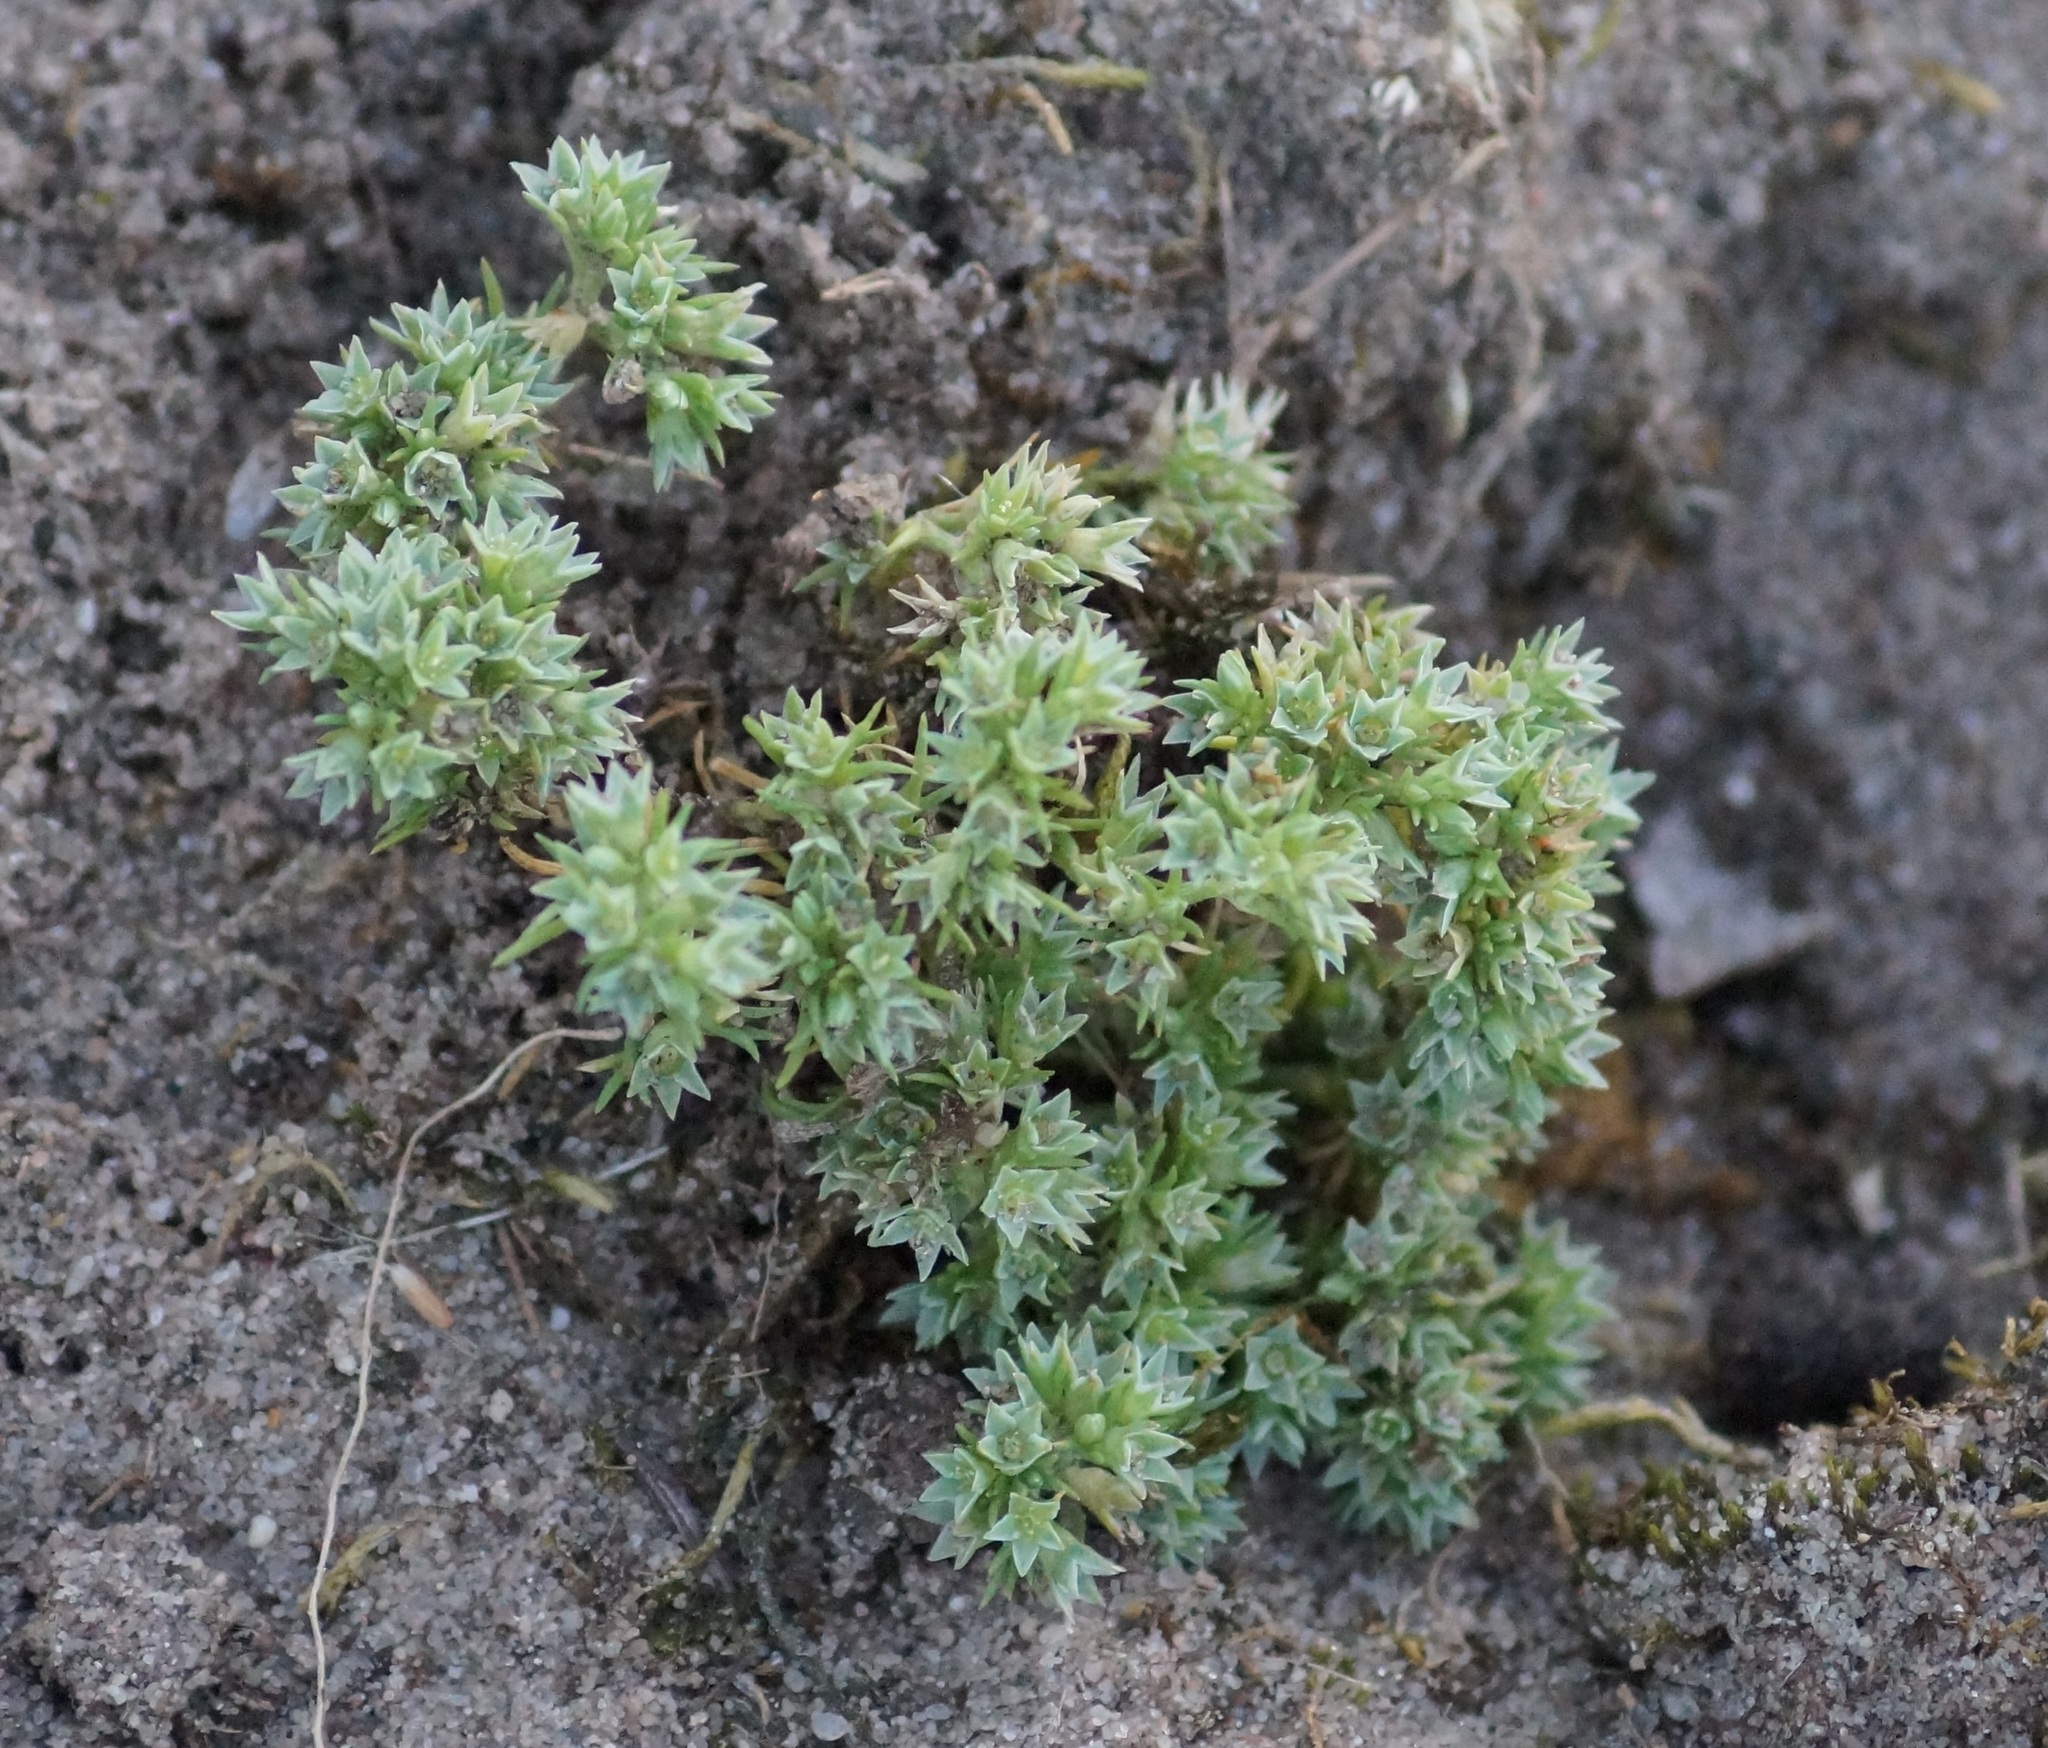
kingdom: Plantae
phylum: Tracheophyta
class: Magnoliopsida
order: Caryophyllales
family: Caryophyllaceae
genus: Scleranthus
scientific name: Scleranthus annuus
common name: Annual knawel
